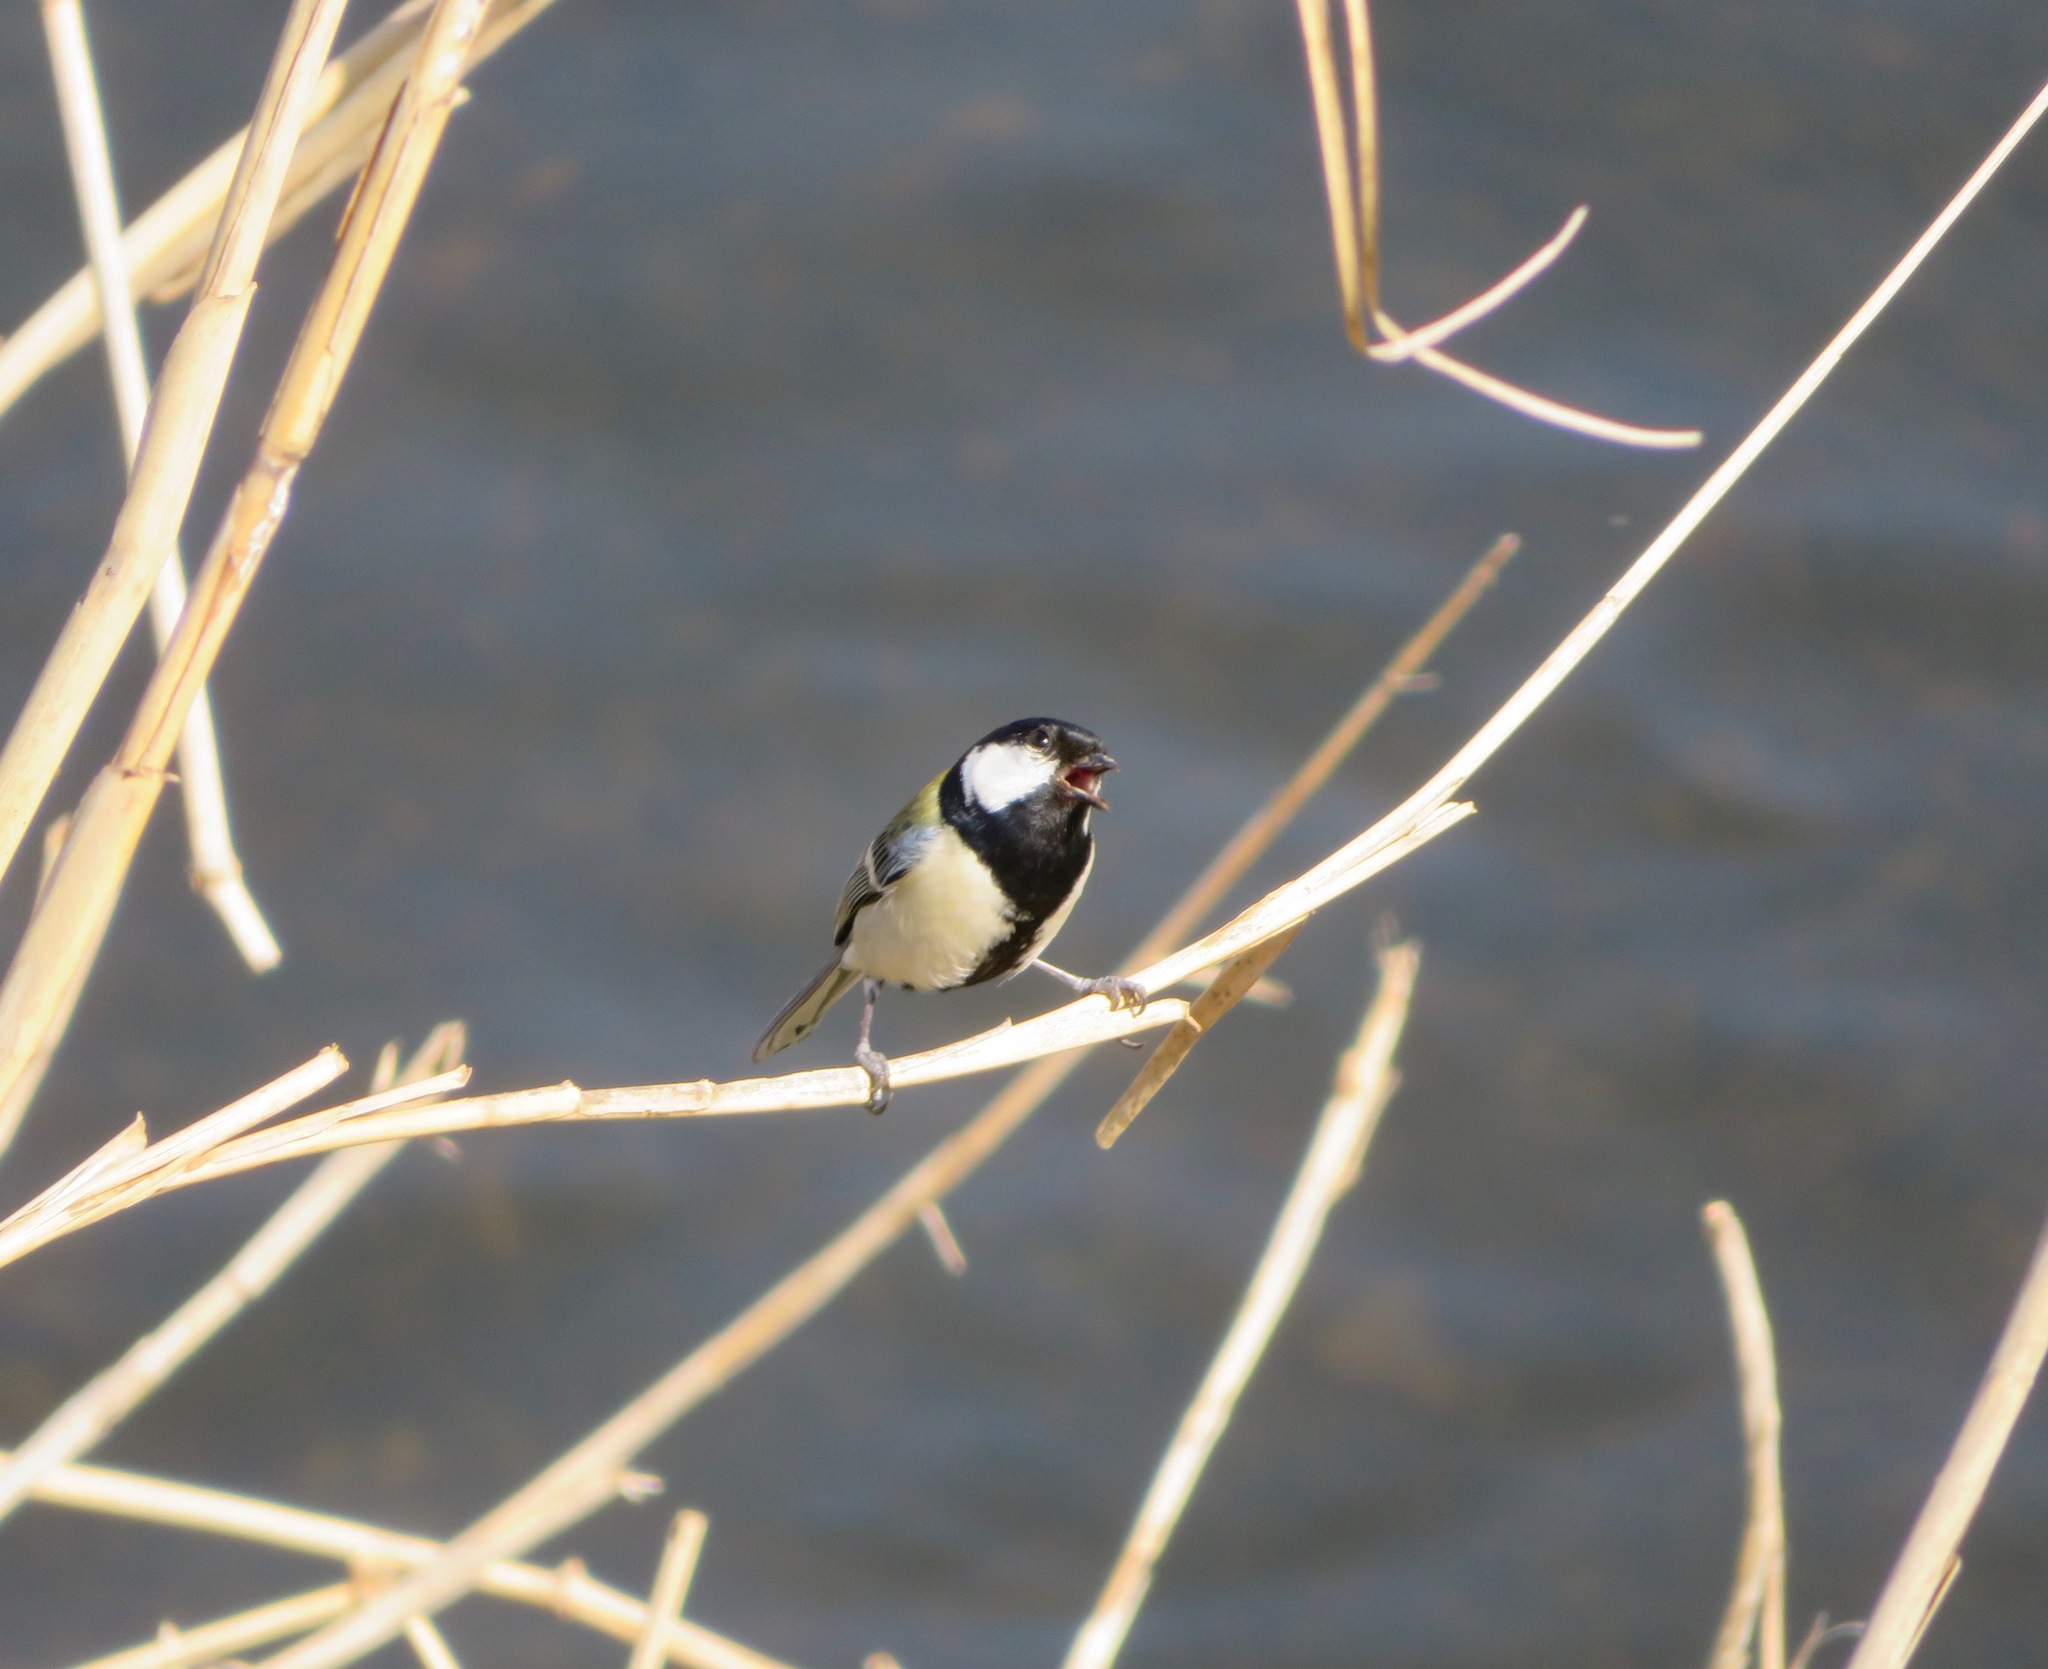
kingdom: Animalia
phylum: Chordata
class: Aves
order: Passeriformes
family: Paridae
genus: Parus
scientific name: Parus minor
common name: Japanese tit
